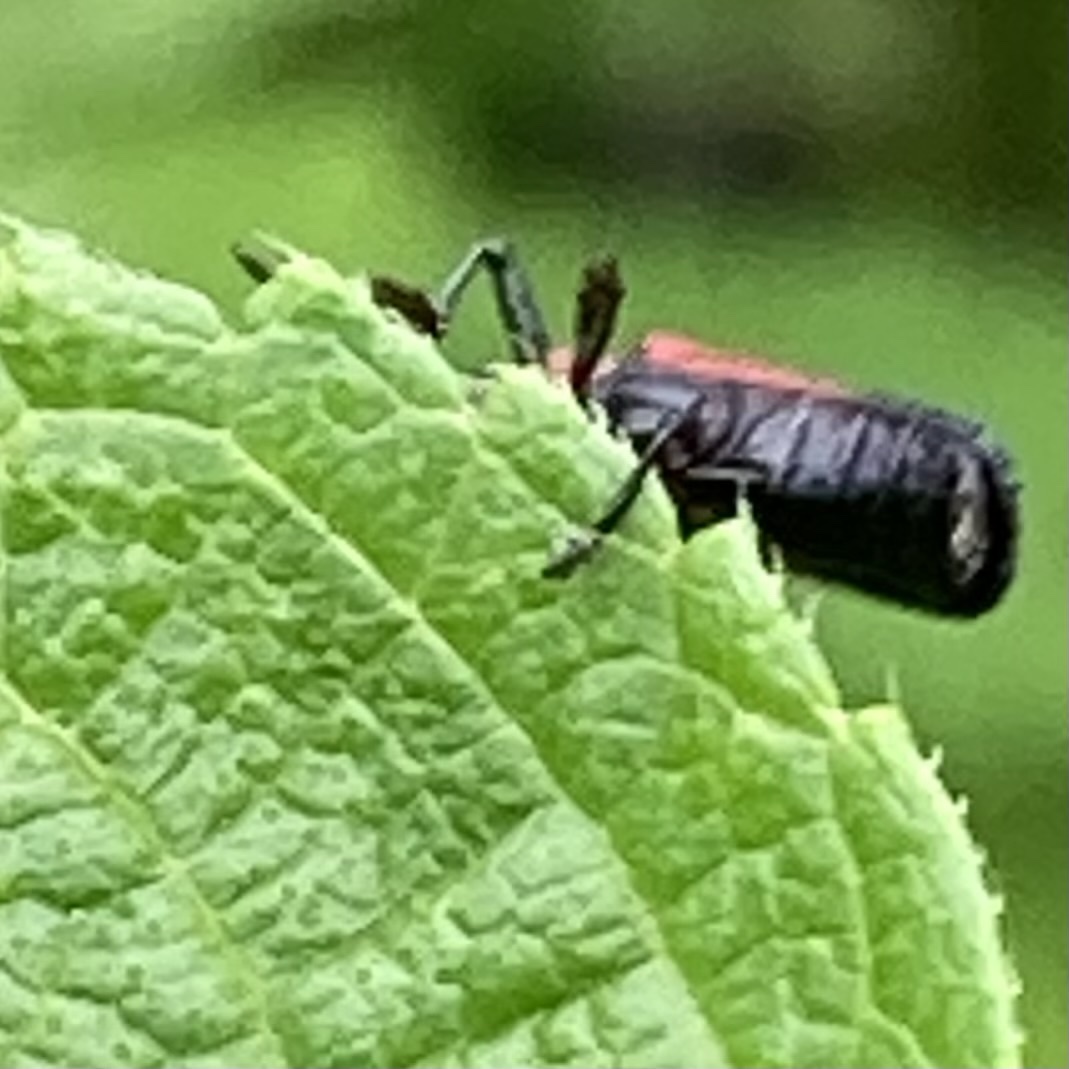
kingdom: Animalia
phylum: Arthropoda
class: Insecta
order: Coleoptera
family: Chrysomelidae
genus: Chalepus
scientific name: Chalepus sanguinicollis
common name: Red-shouldered leaf beetle
